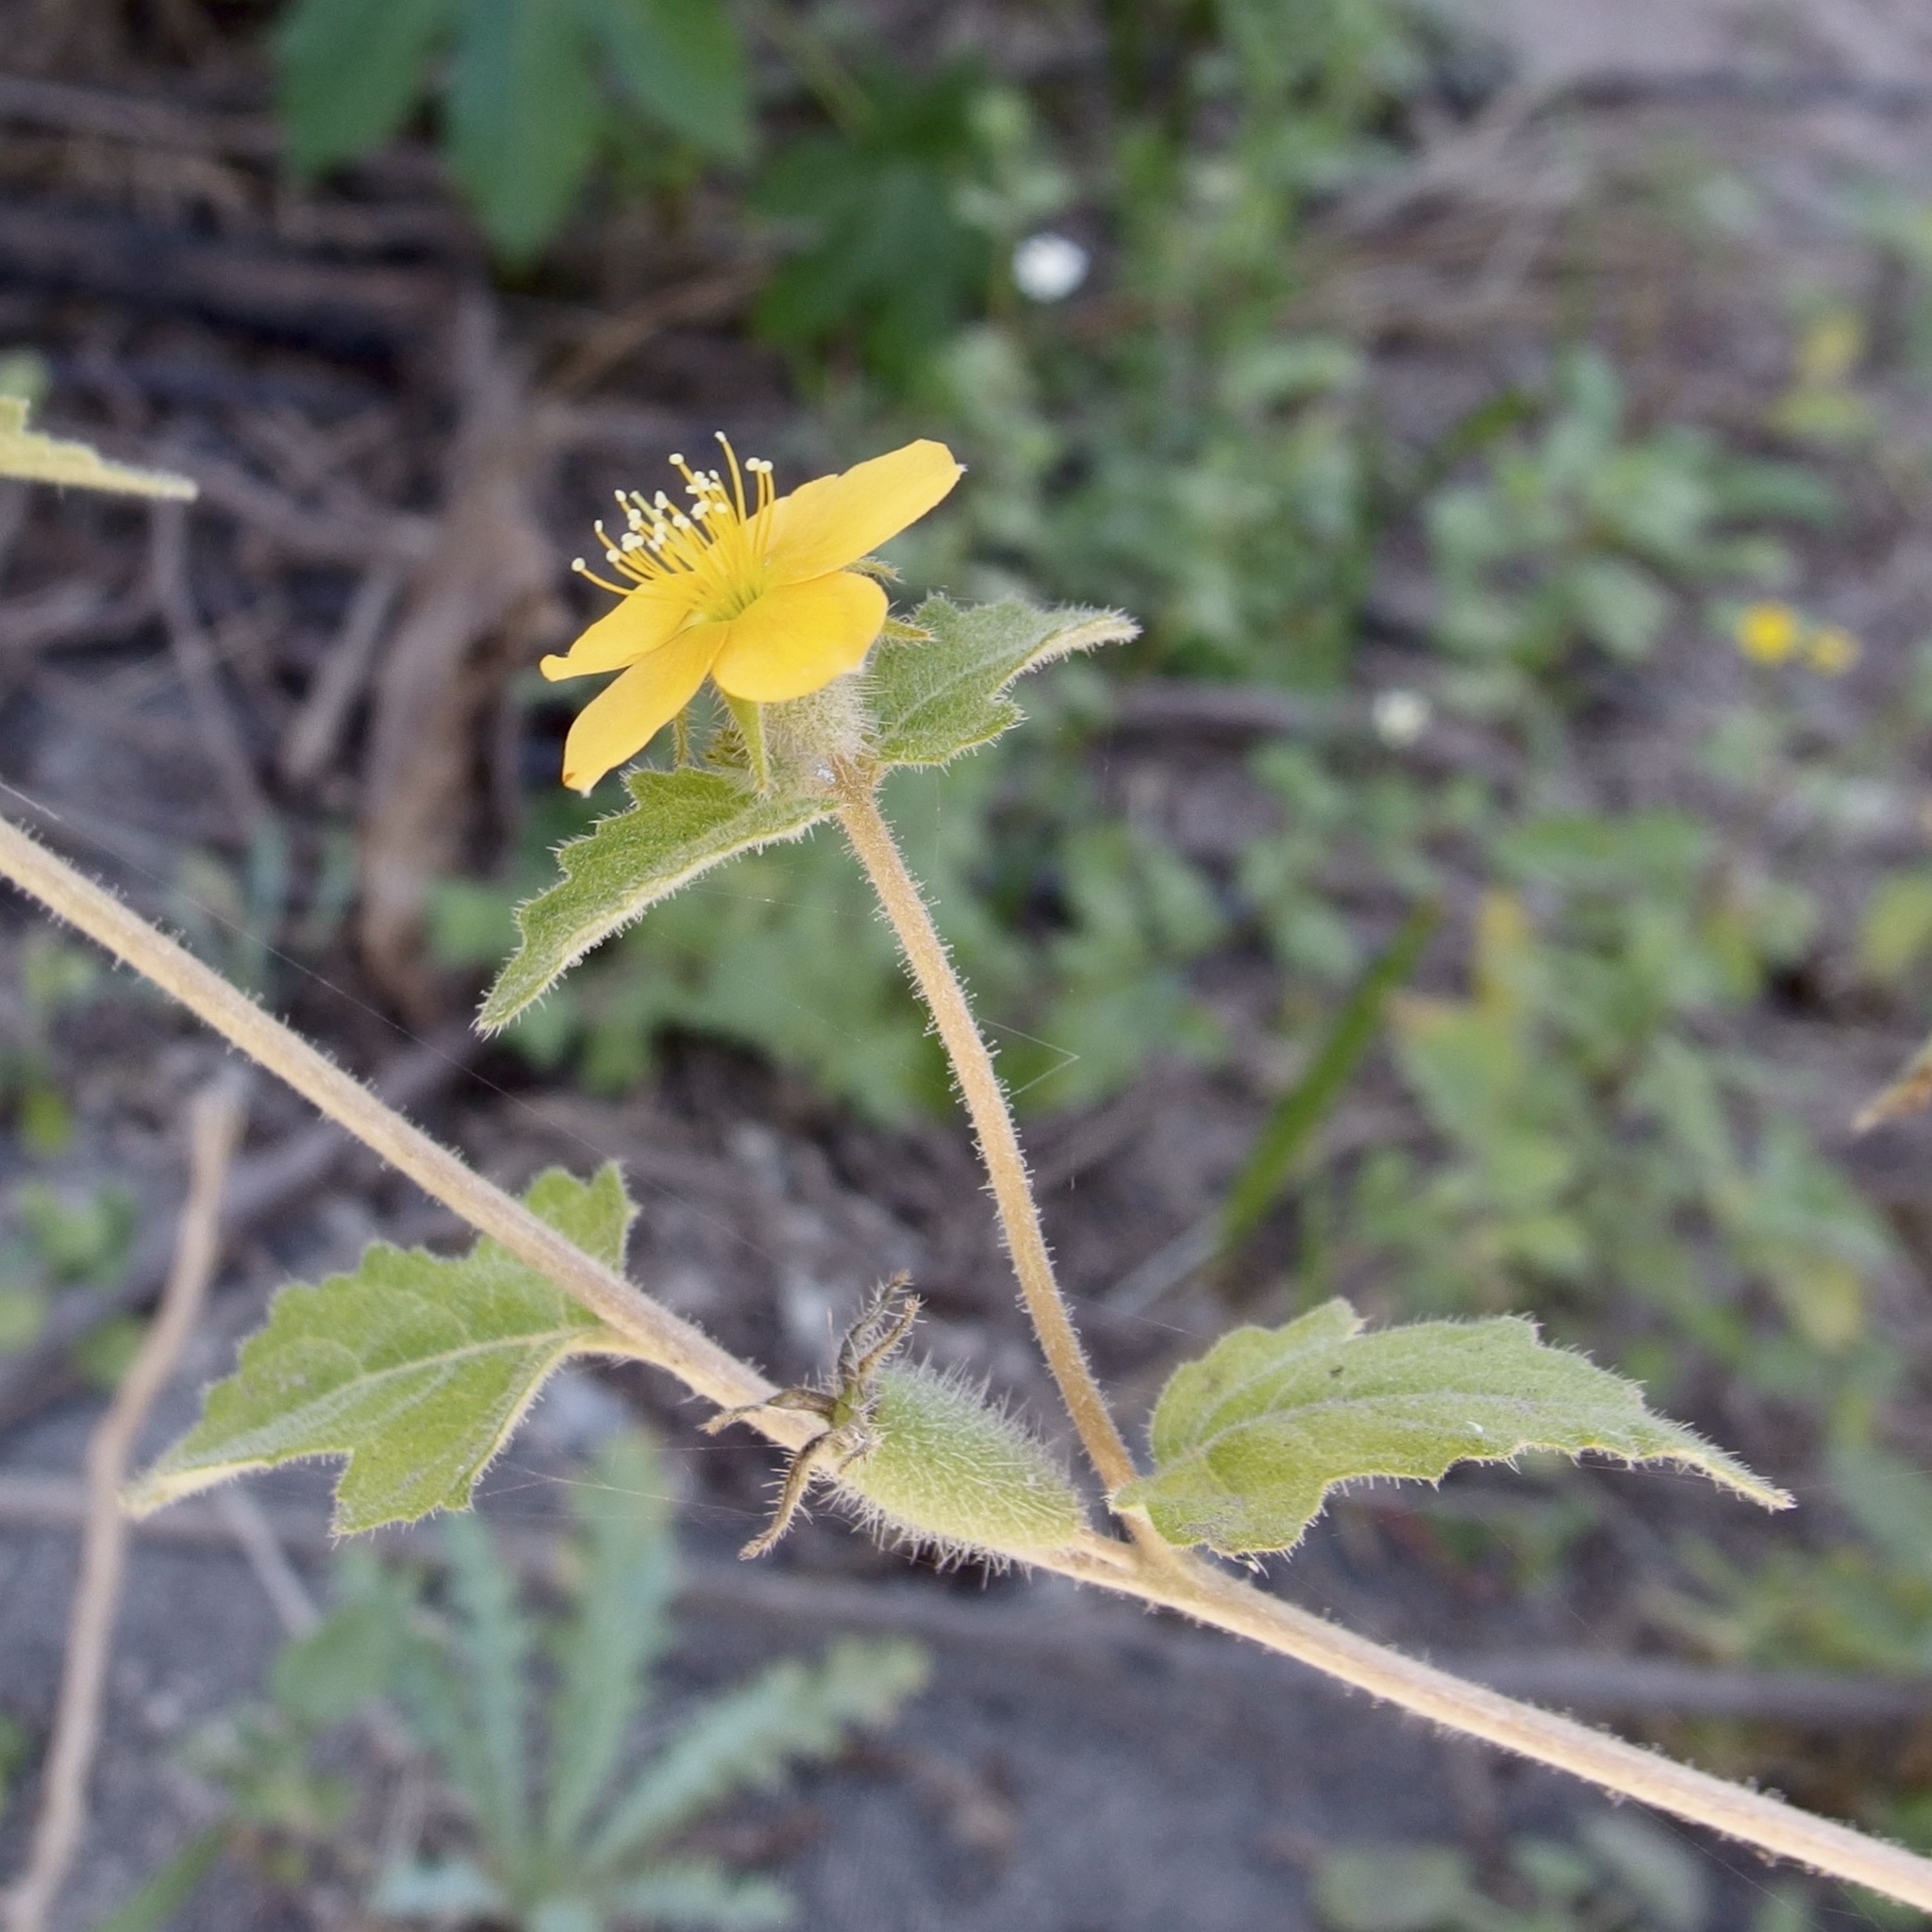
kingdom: Plantae
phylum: Tracheophyta
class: Magnoliopsida
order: Cornales
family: Loasaceae
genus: Mentzelia
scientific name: Mentzelia adhaerens
